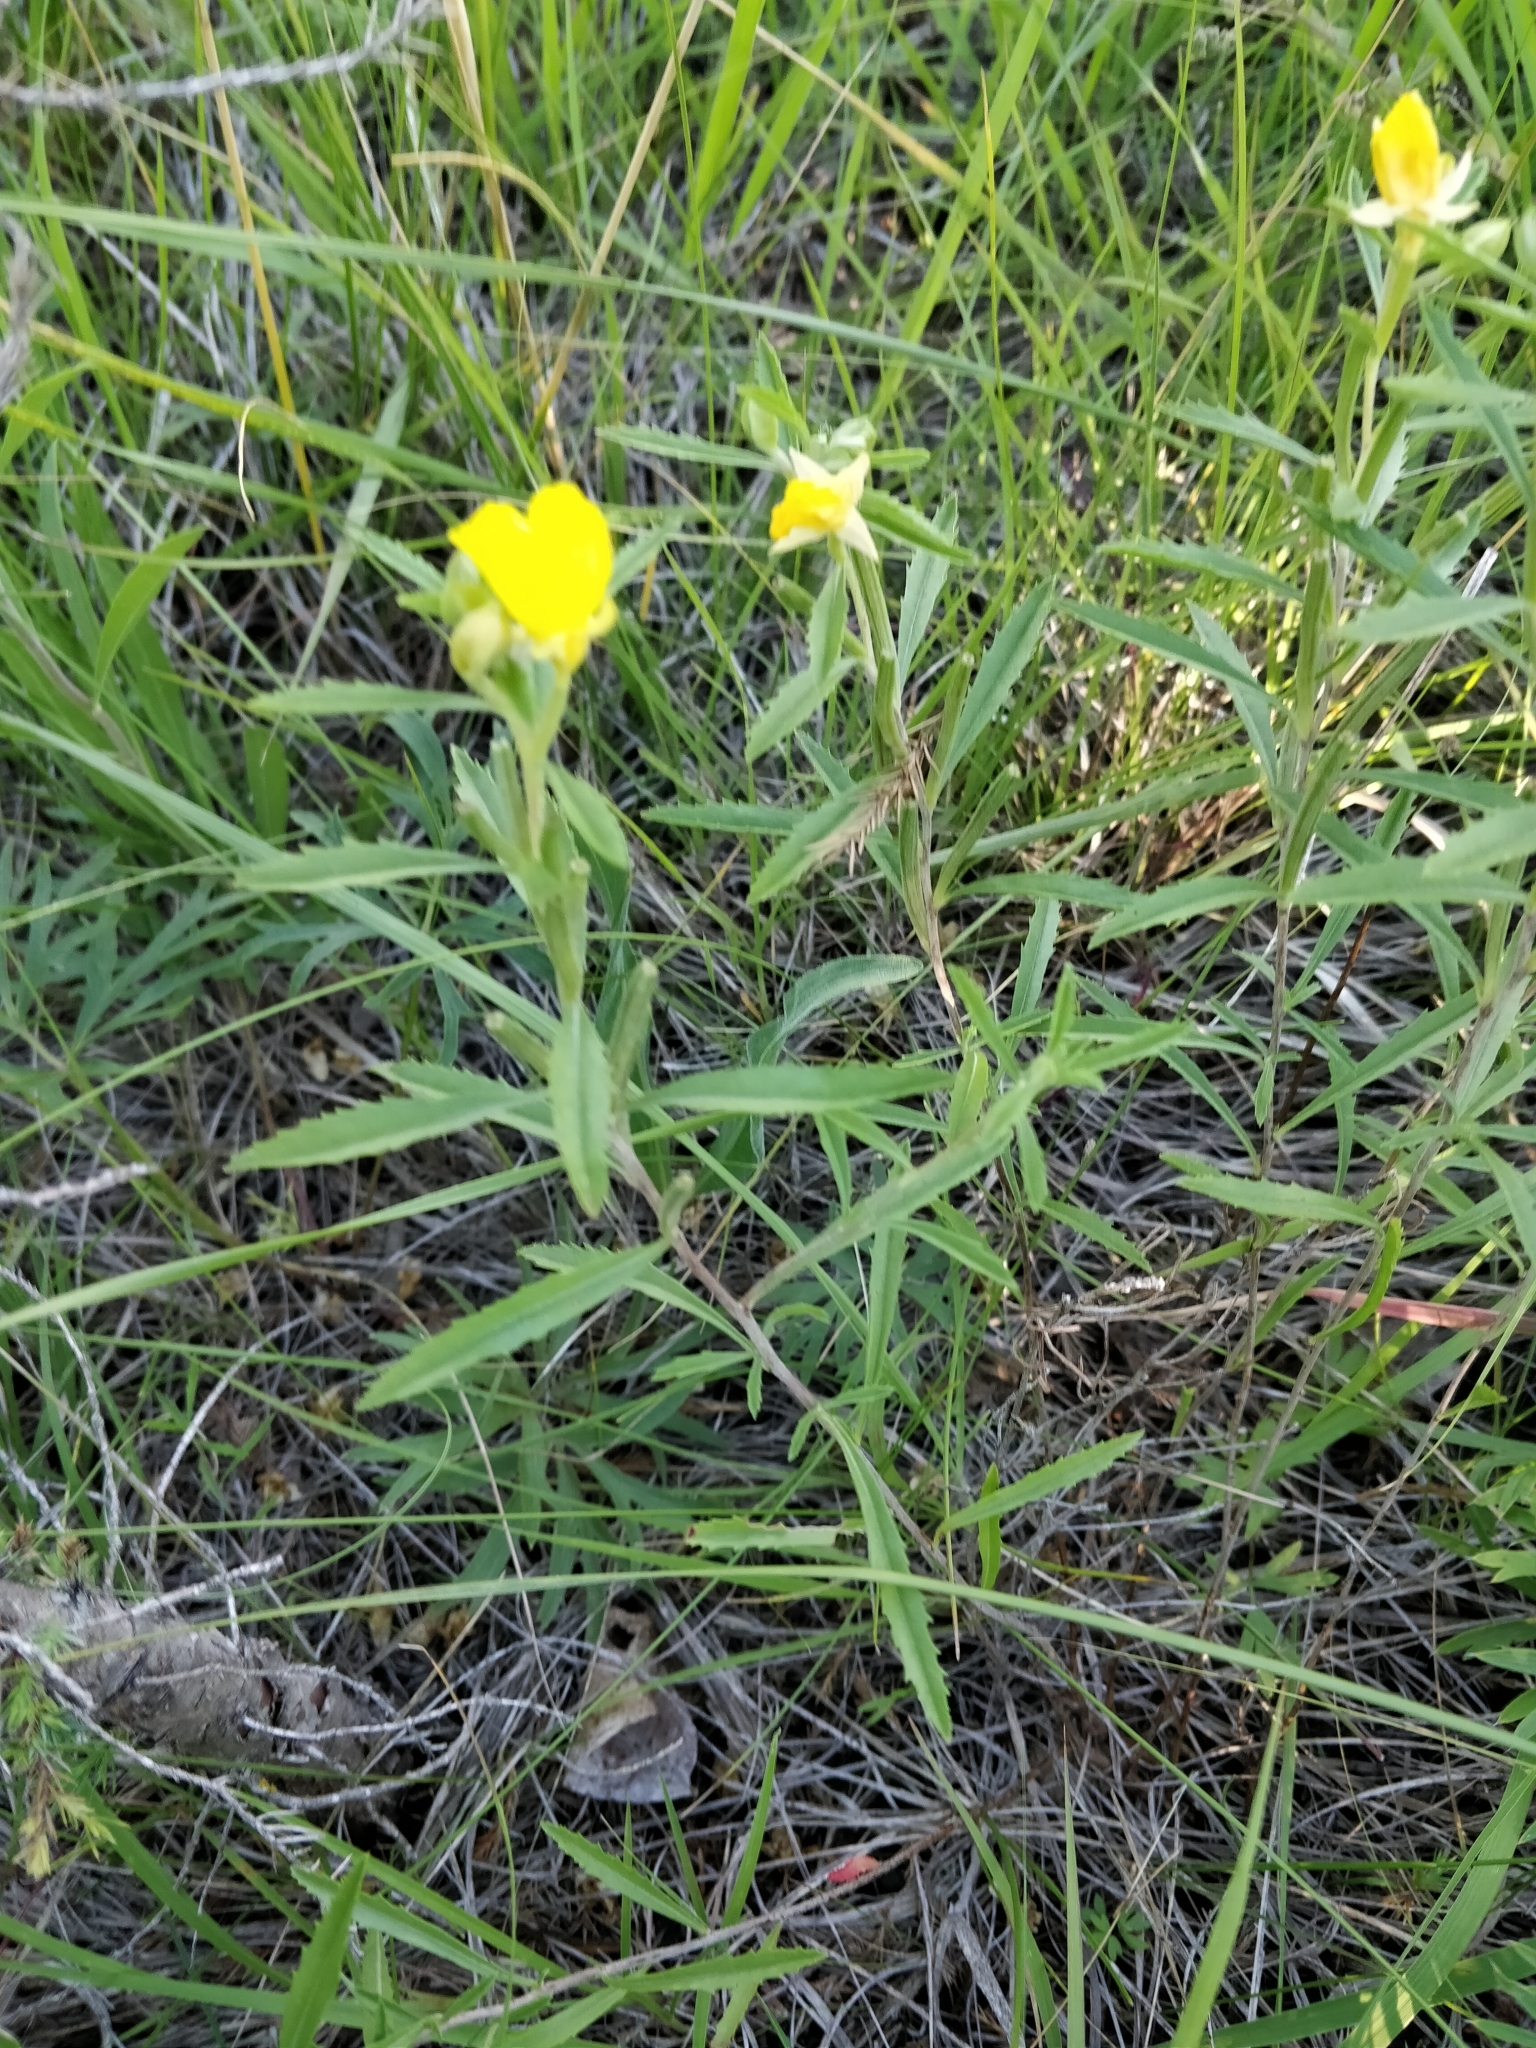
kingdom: Plantae
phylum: Tracheophyta
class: Magnoliopsida
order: Myrtales
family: Onagraceae
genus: Oenothera
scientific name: Oenothera serrulata
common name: Half-shrub calylophus
